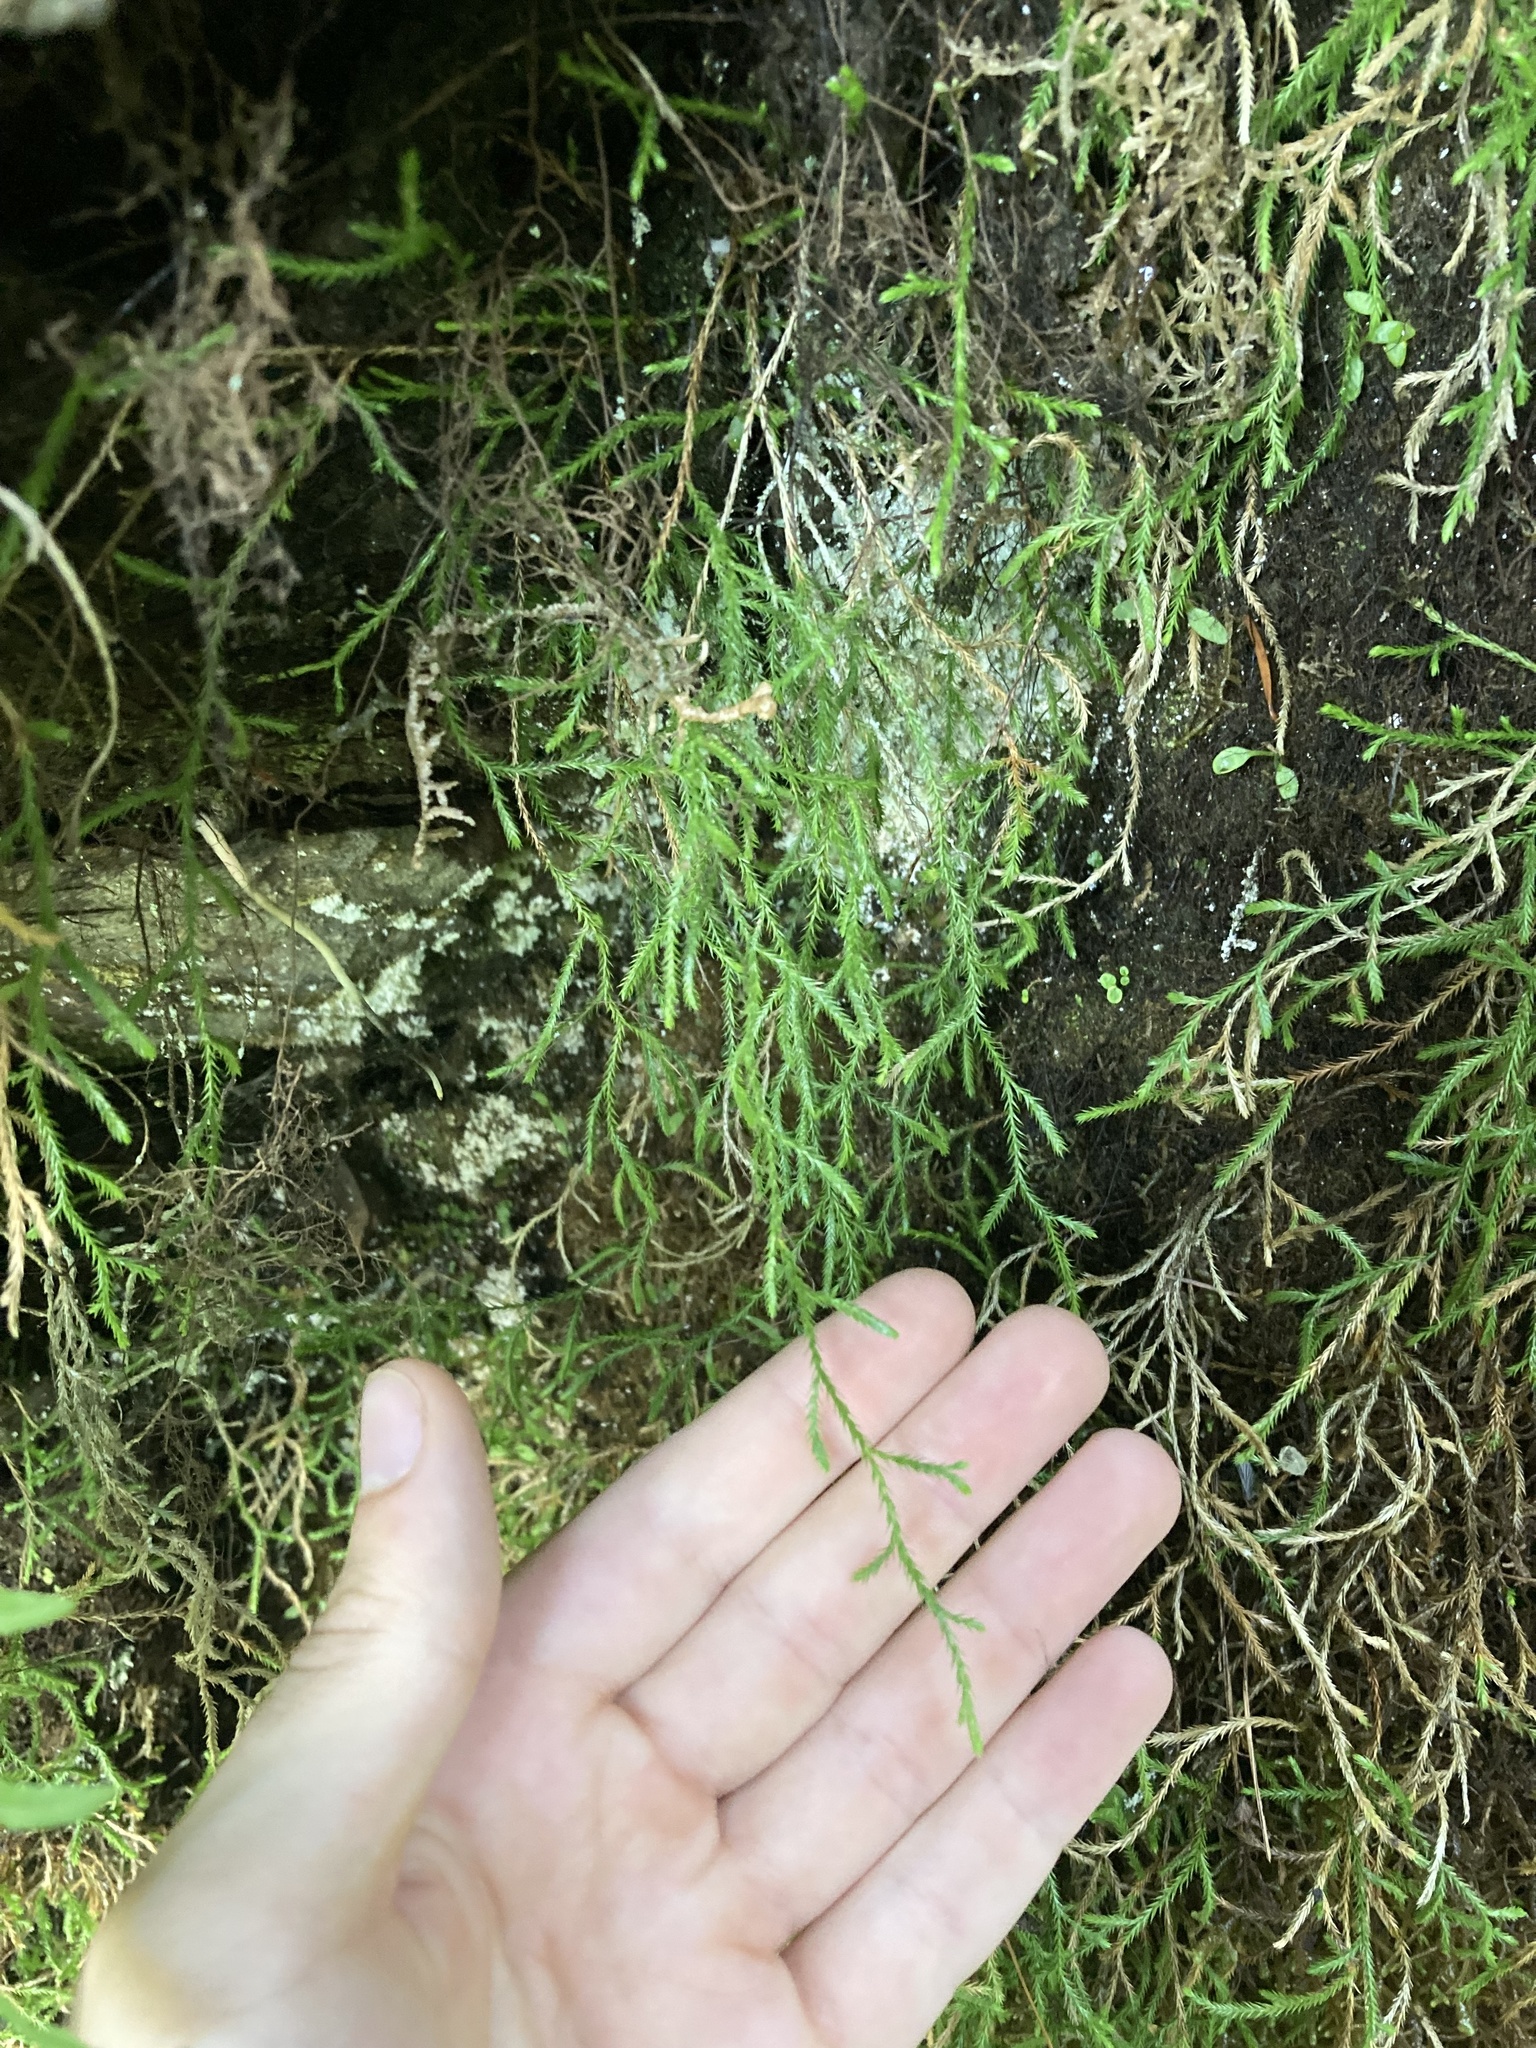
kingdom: Plantae
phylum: Tracheophyta
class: Lycopodiopsida
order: Selaginellales
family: Selaginellaceae
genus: Selaginella
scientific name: Selaginella oregana
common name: Oregon selaginella
